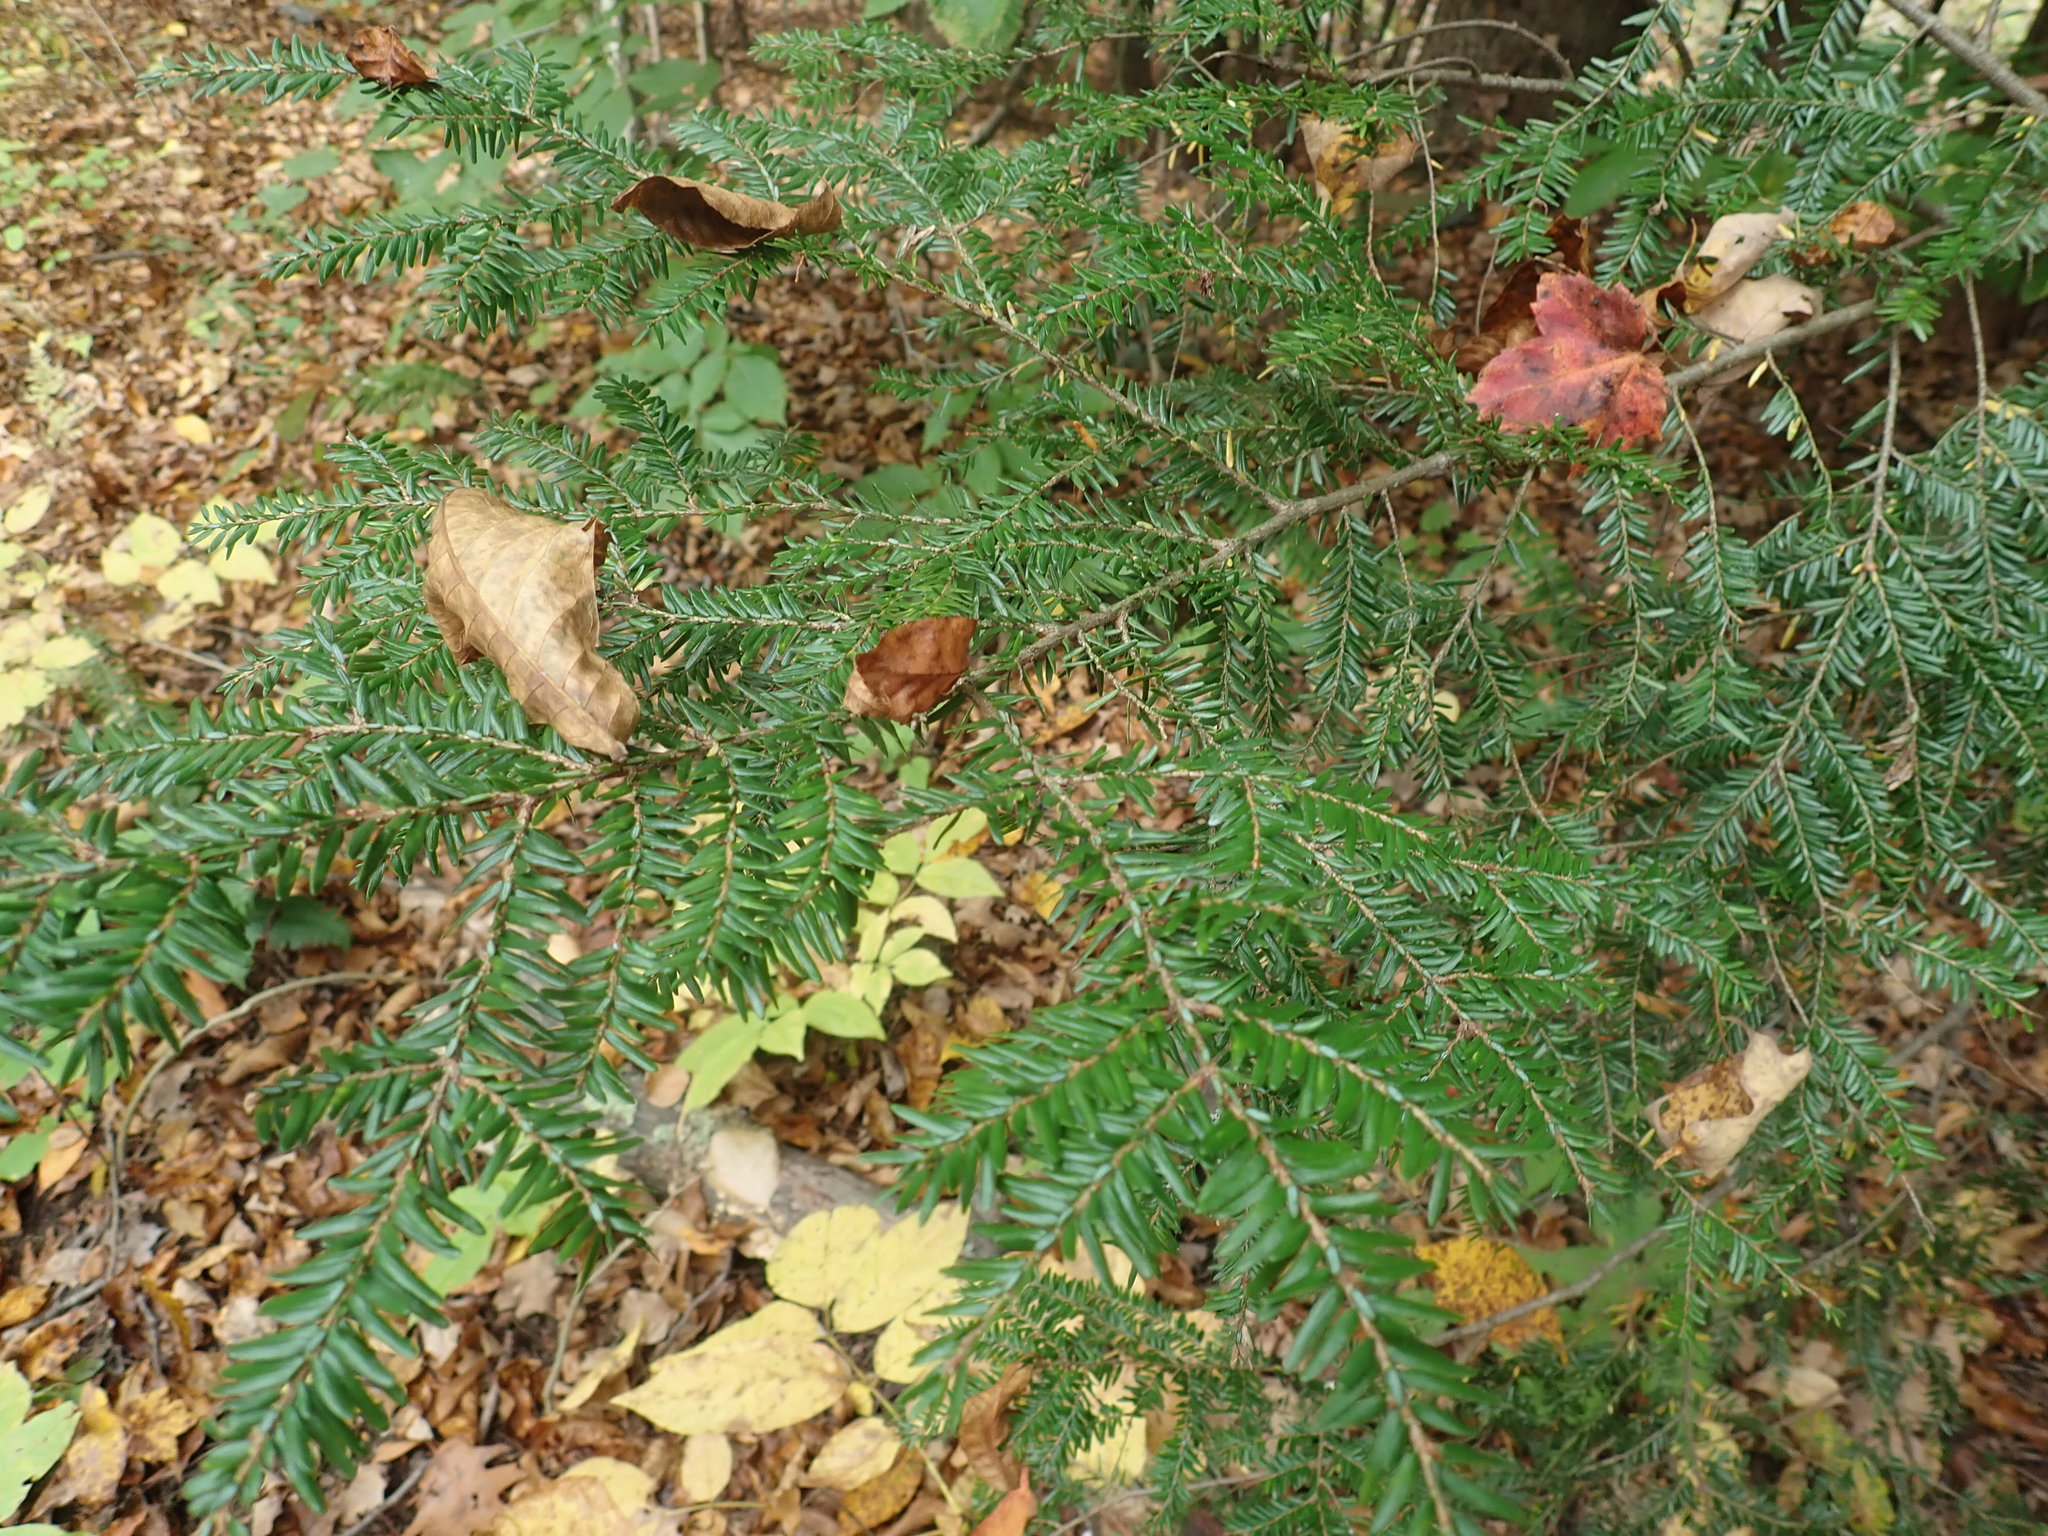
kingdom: Plantae
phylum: Tracheophyta
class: Pinopsida
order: Pinales
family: Pinaceae
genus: Tsuga
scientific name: Tsuga canadensis
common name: Eastern hemlock
